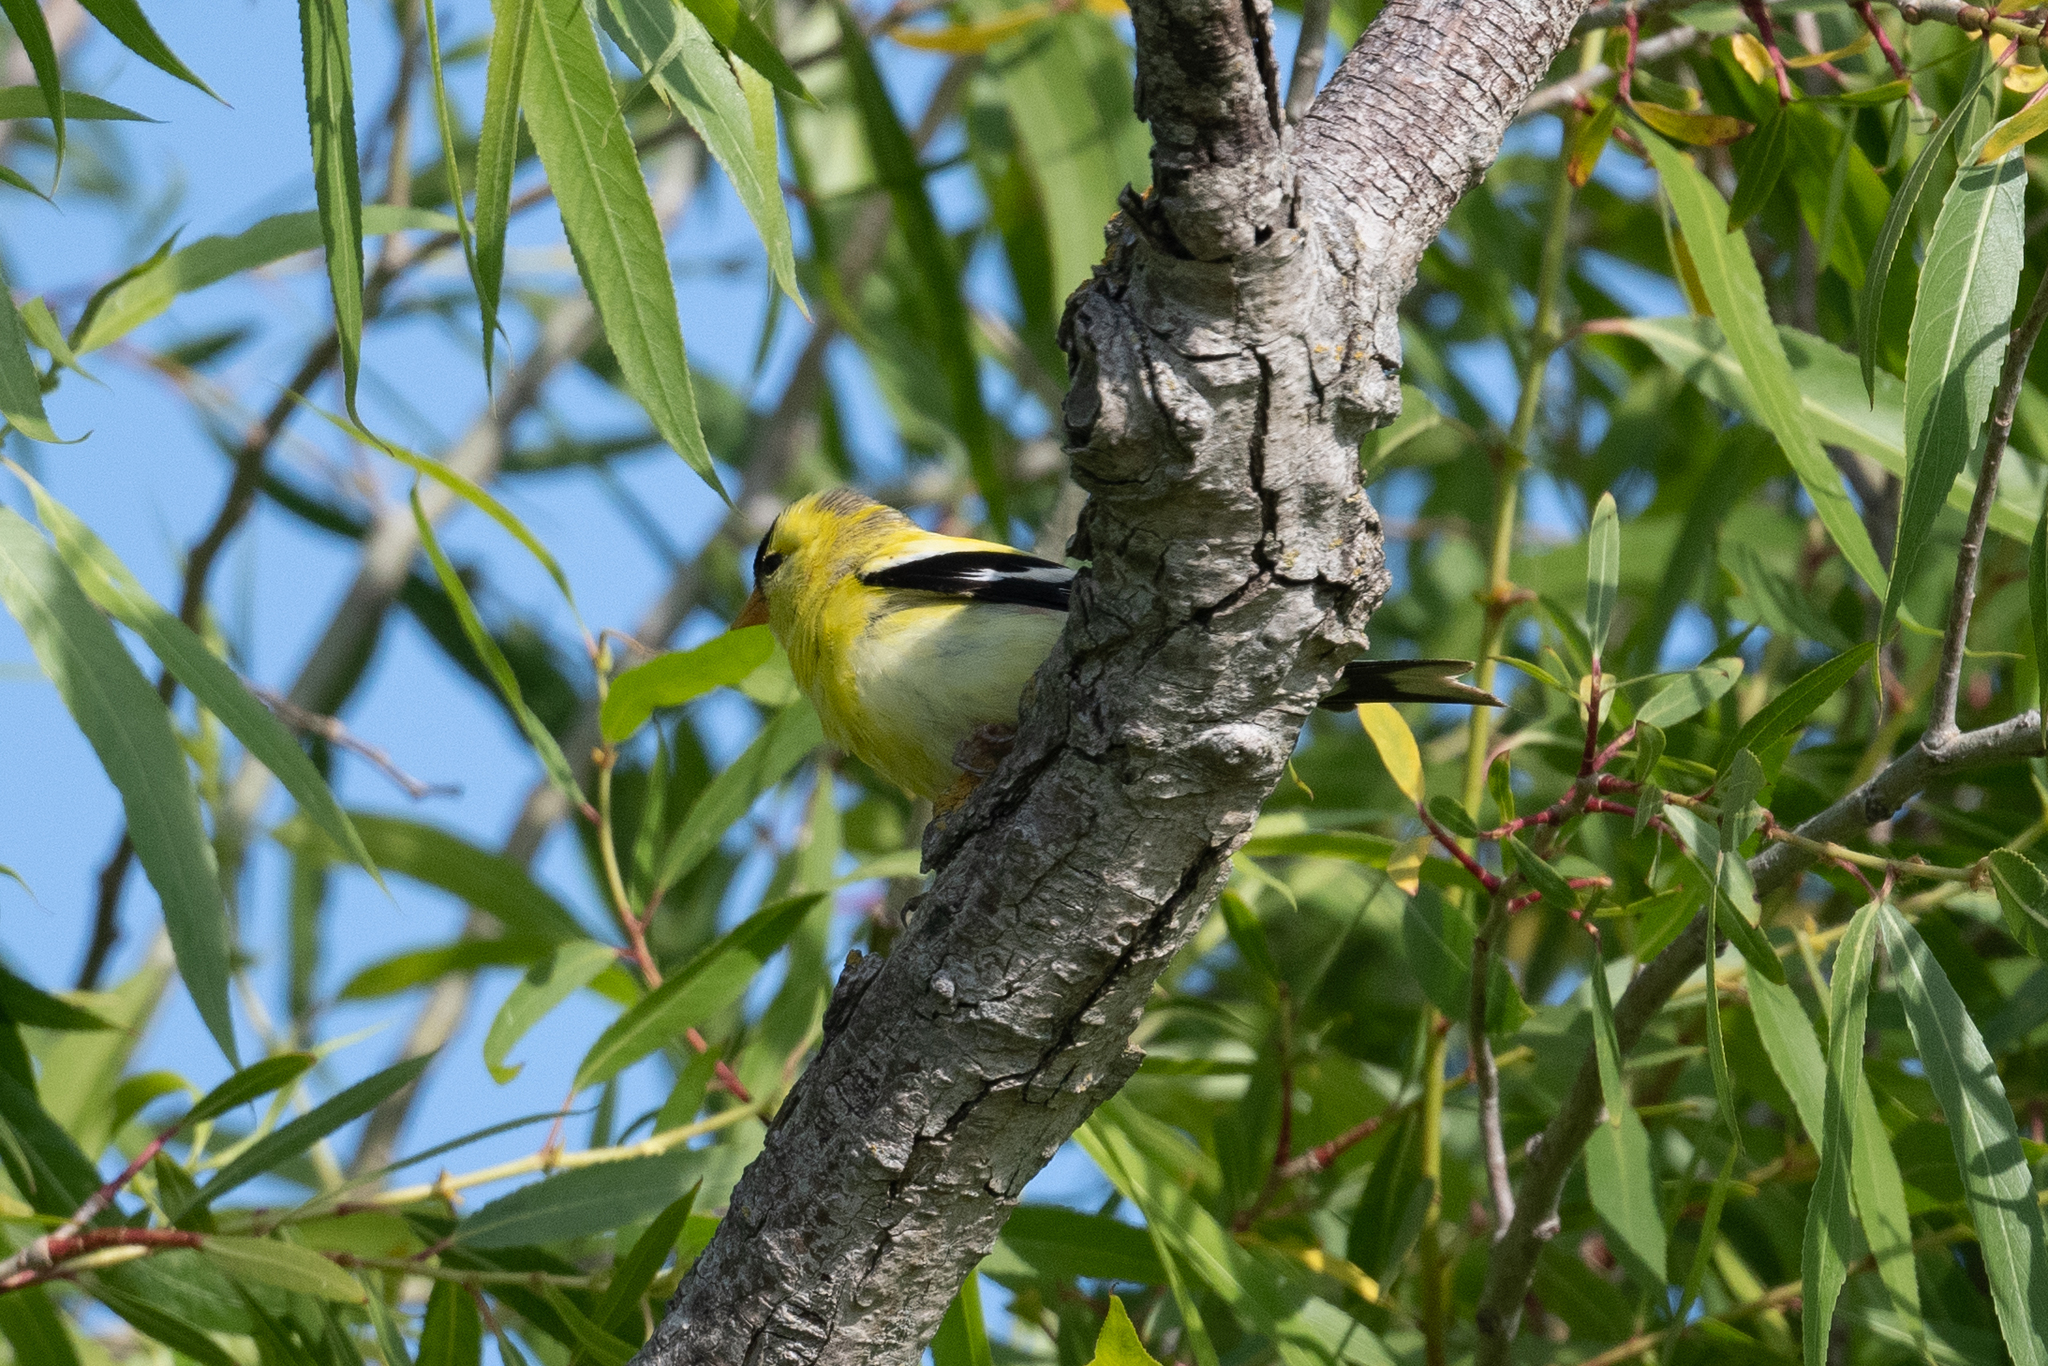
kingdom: Animalia
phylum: Chordata
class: Aves
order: Passeriformes
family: Fringillidae
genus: Spinus
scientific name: Spinus tristis
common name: American goldfinch
